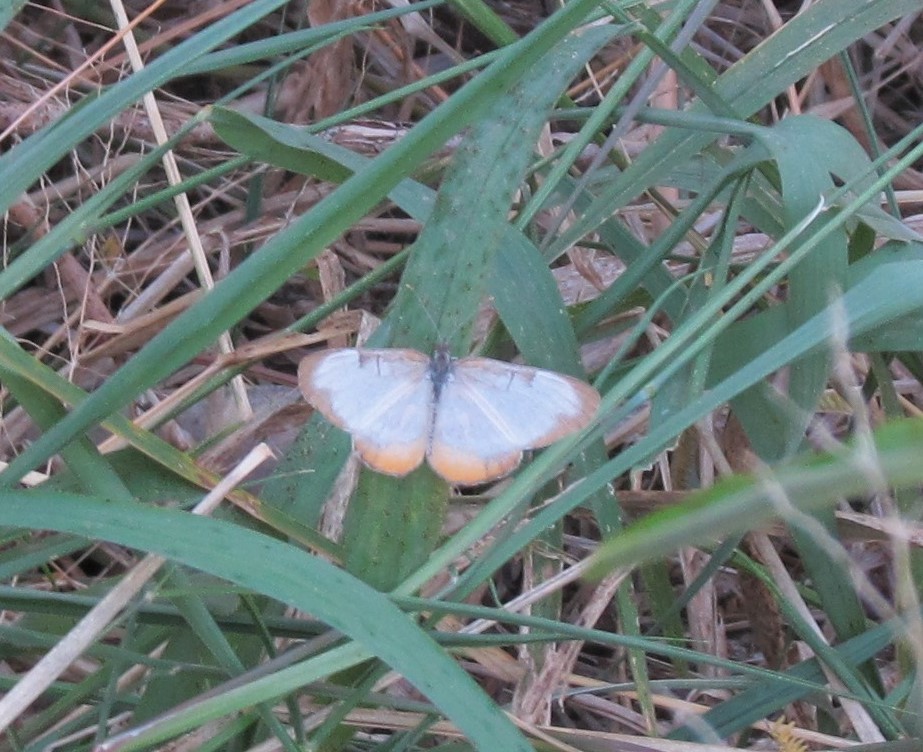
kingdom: Animalia
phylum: Arthropoda
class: Insecta
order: Lepidoptera
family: Nymphalidae
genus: Mestra
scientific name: Mestra amymone
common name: Common mestra
